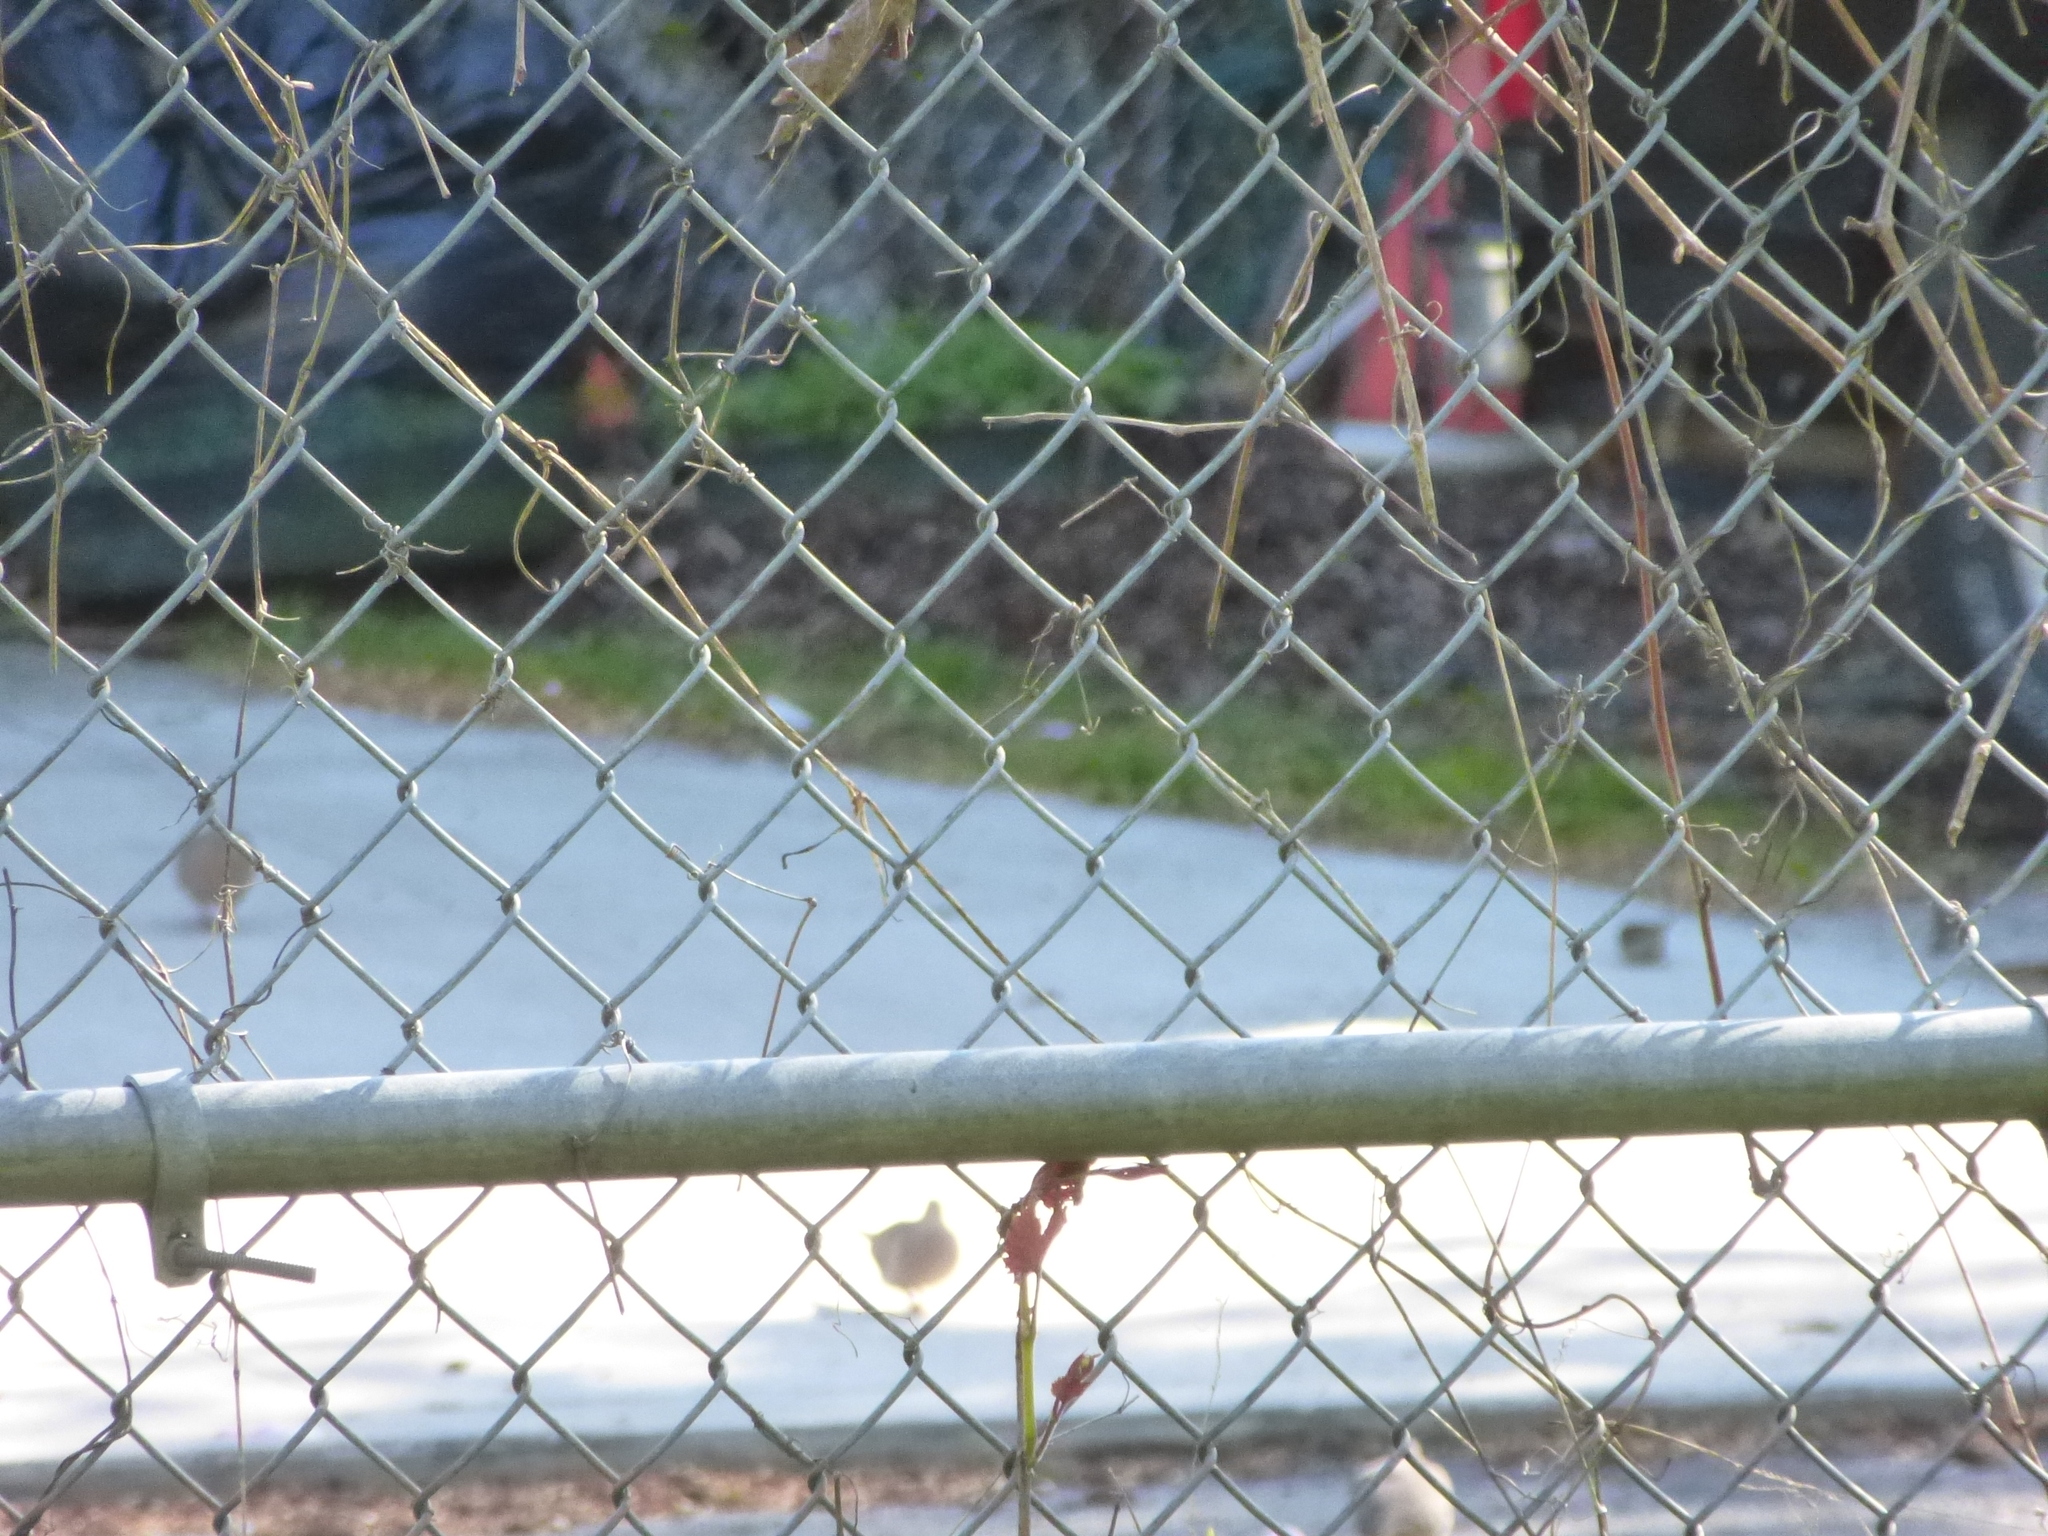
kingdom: Animalia
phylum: Chordata
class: Aves
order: Columbiformes
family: Columbidae
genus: Zenaida
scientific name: Zenaida macroura
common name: Mourning dove
